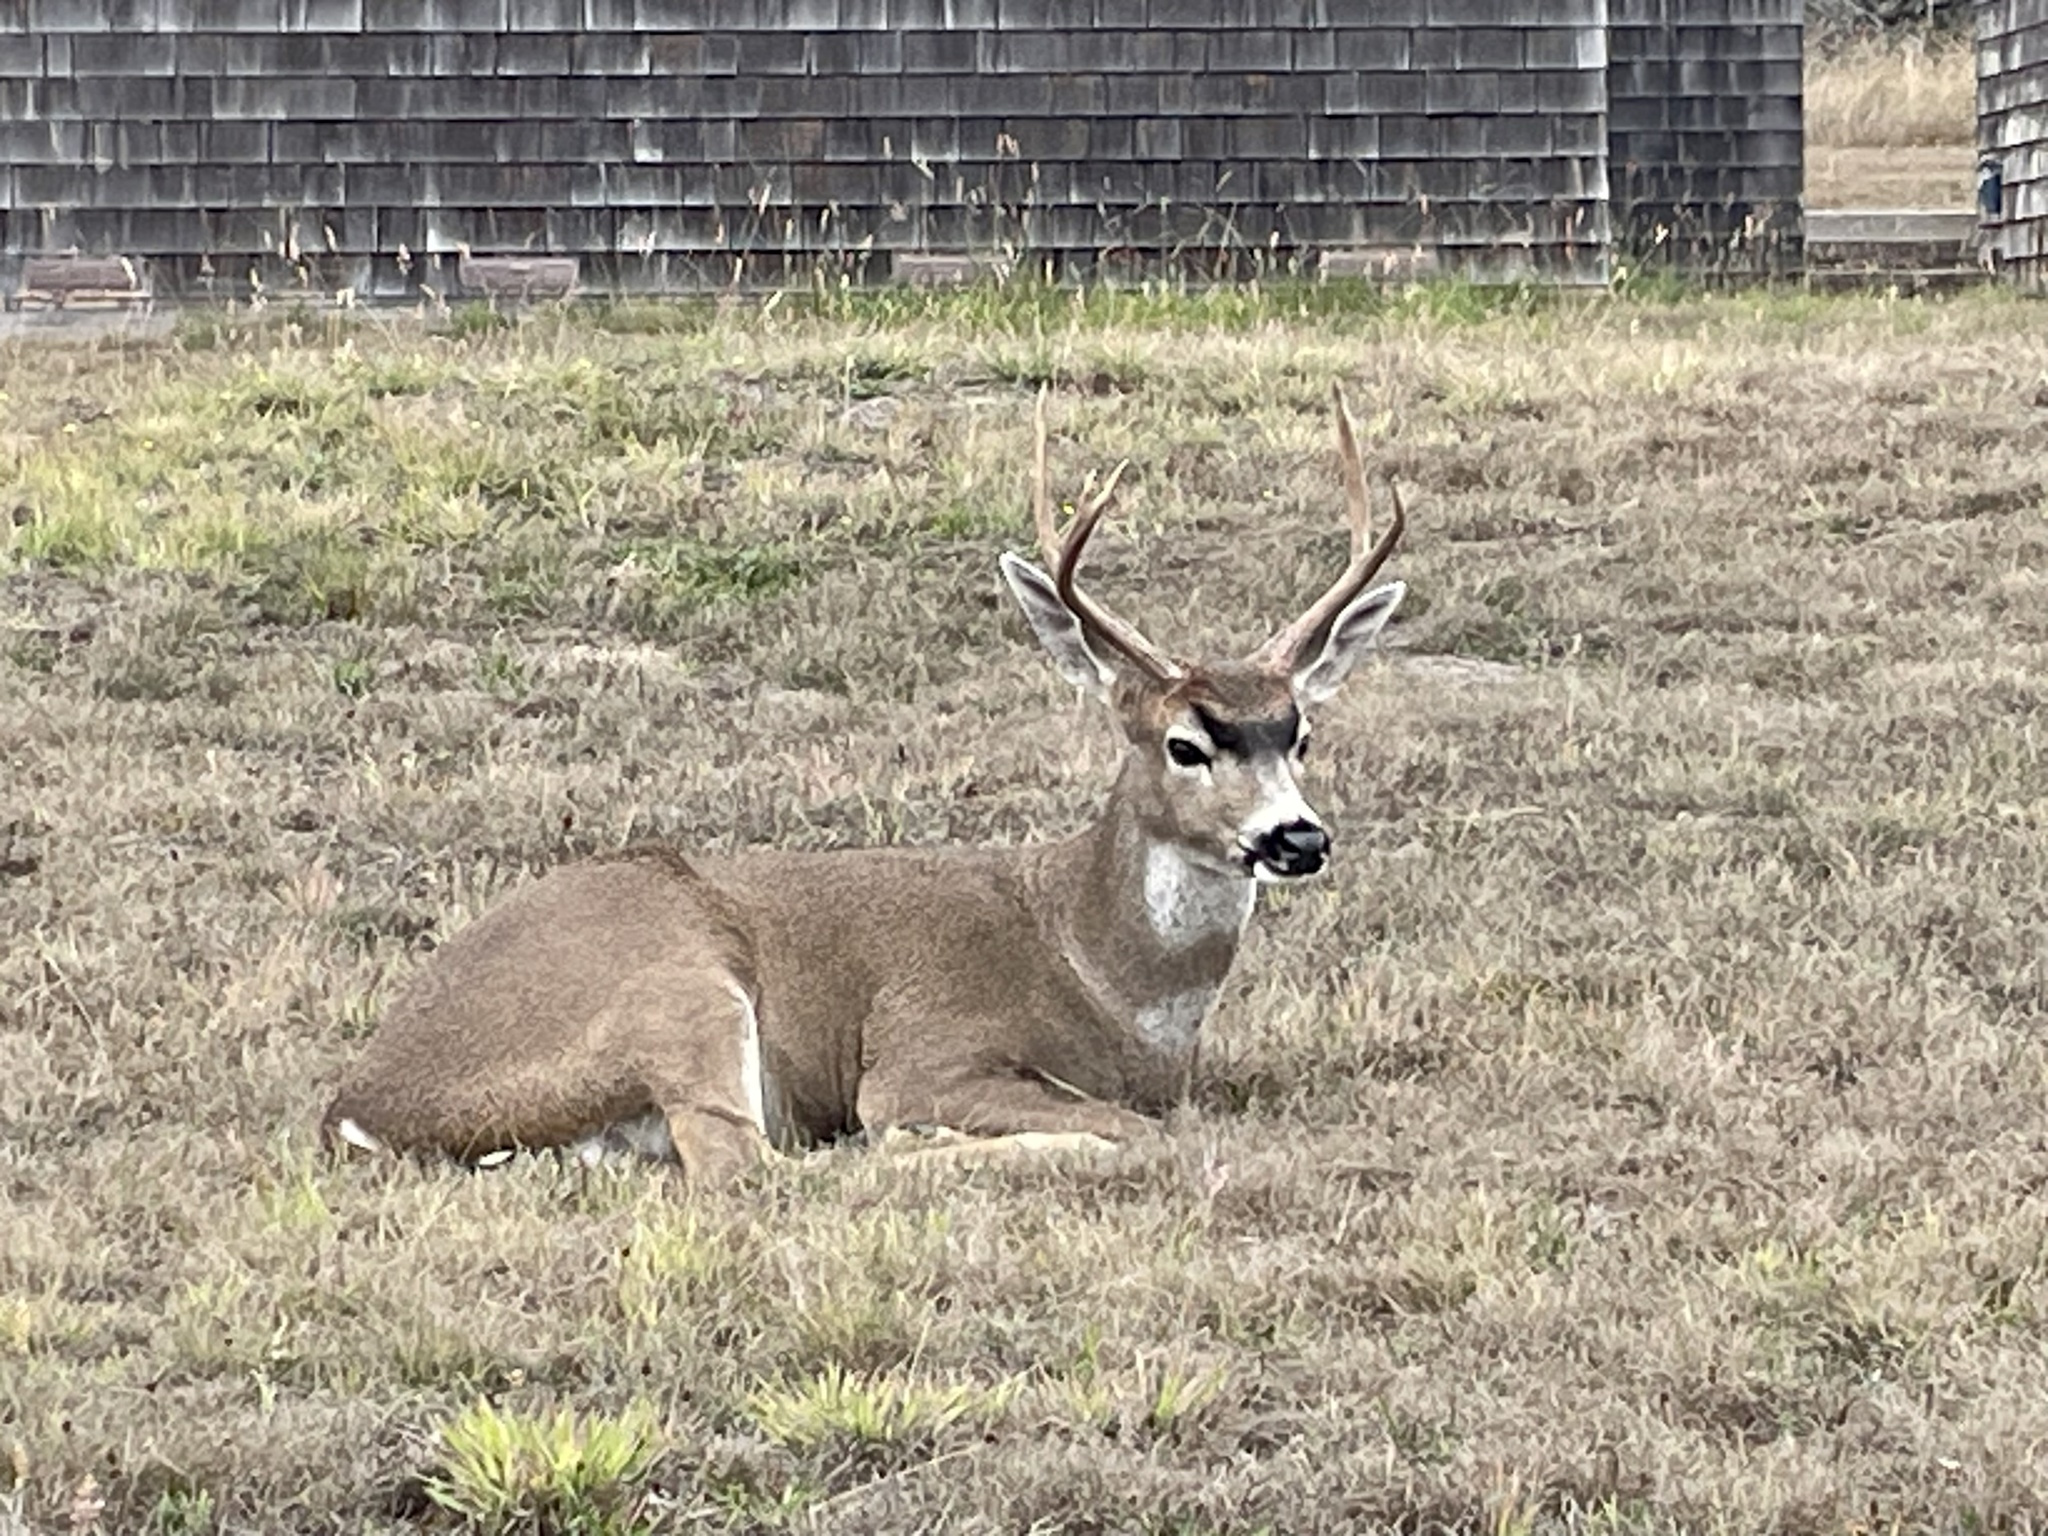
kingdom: Animalia
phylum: Chordata
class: Mammalia
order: Artiodactyla
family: Cervidae
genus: Odocoileus
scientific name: Odocoileus hemionus
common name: Mule deer
